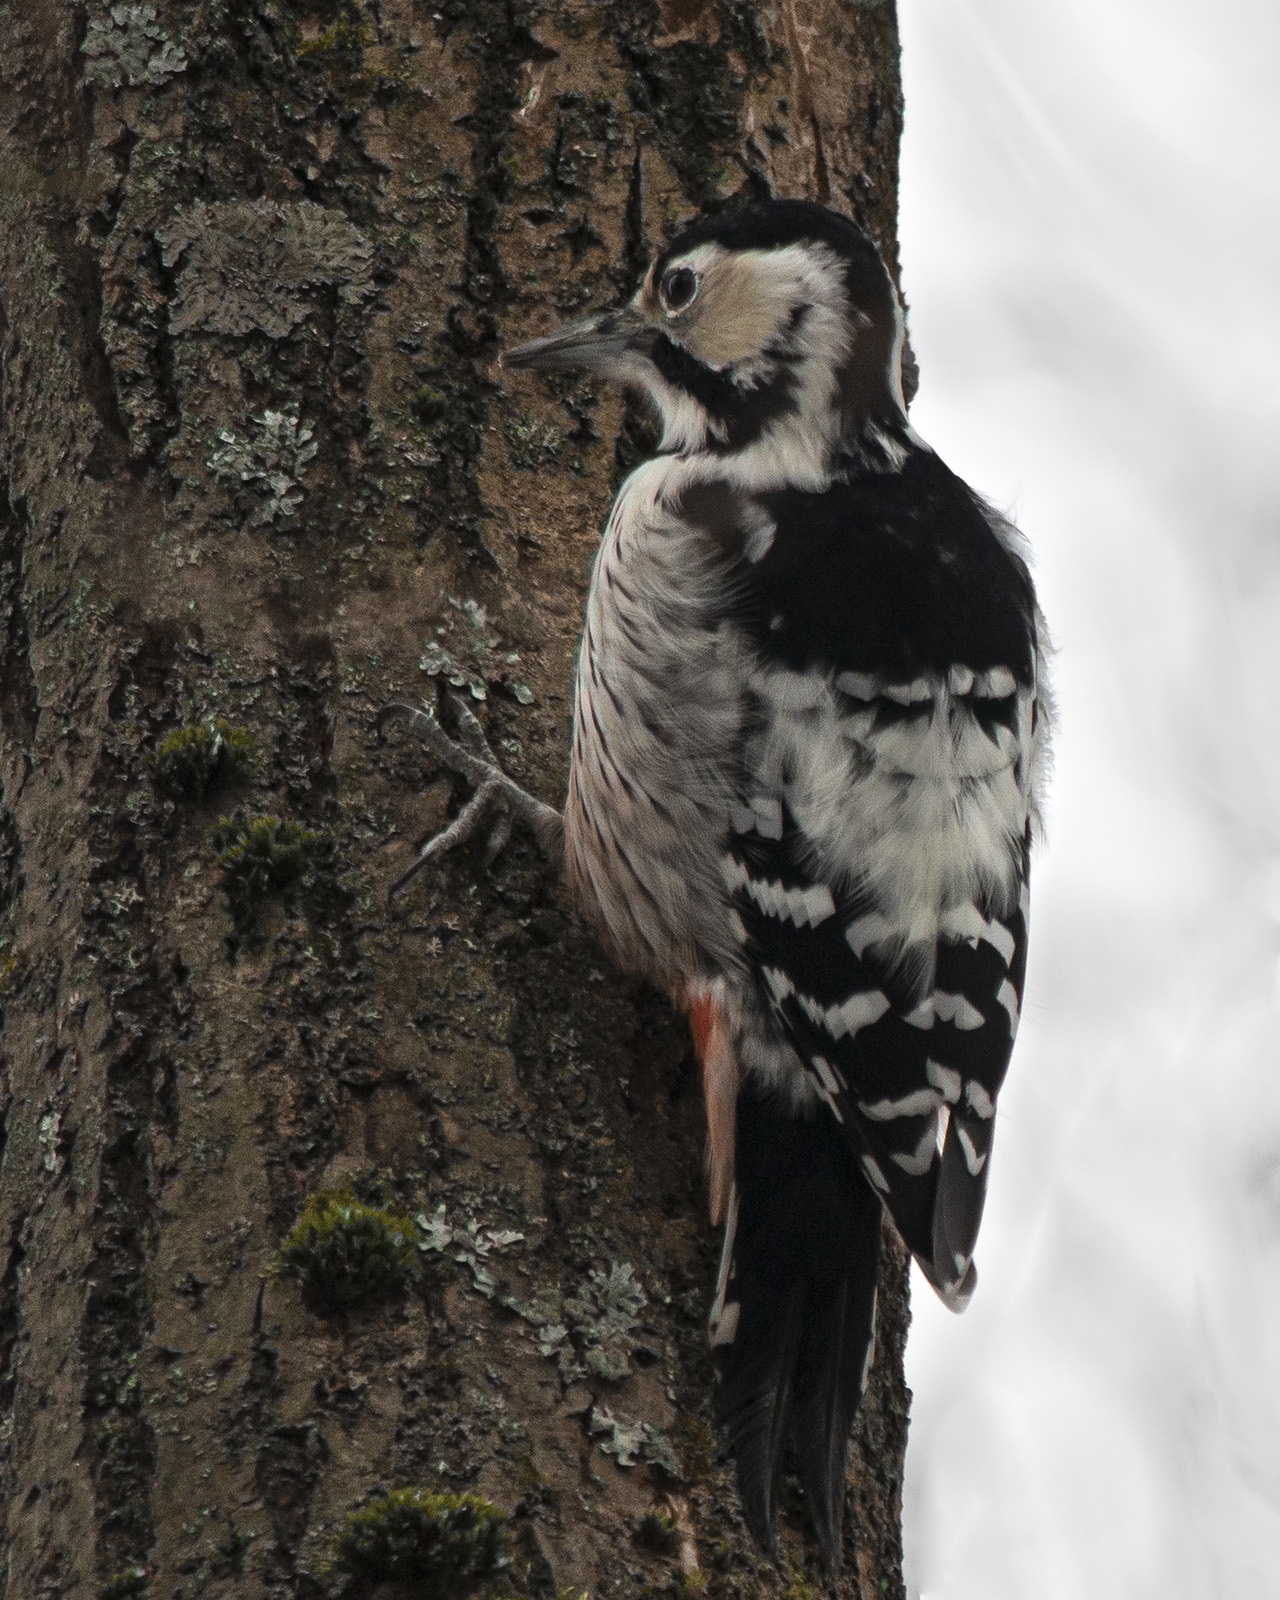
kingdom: Animalia
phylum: Chordata
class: Aves
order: Piciformes
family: Picidae
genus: Dendrocopos
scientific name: Dendrocopos leucotos
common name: White-backed woodpecker
